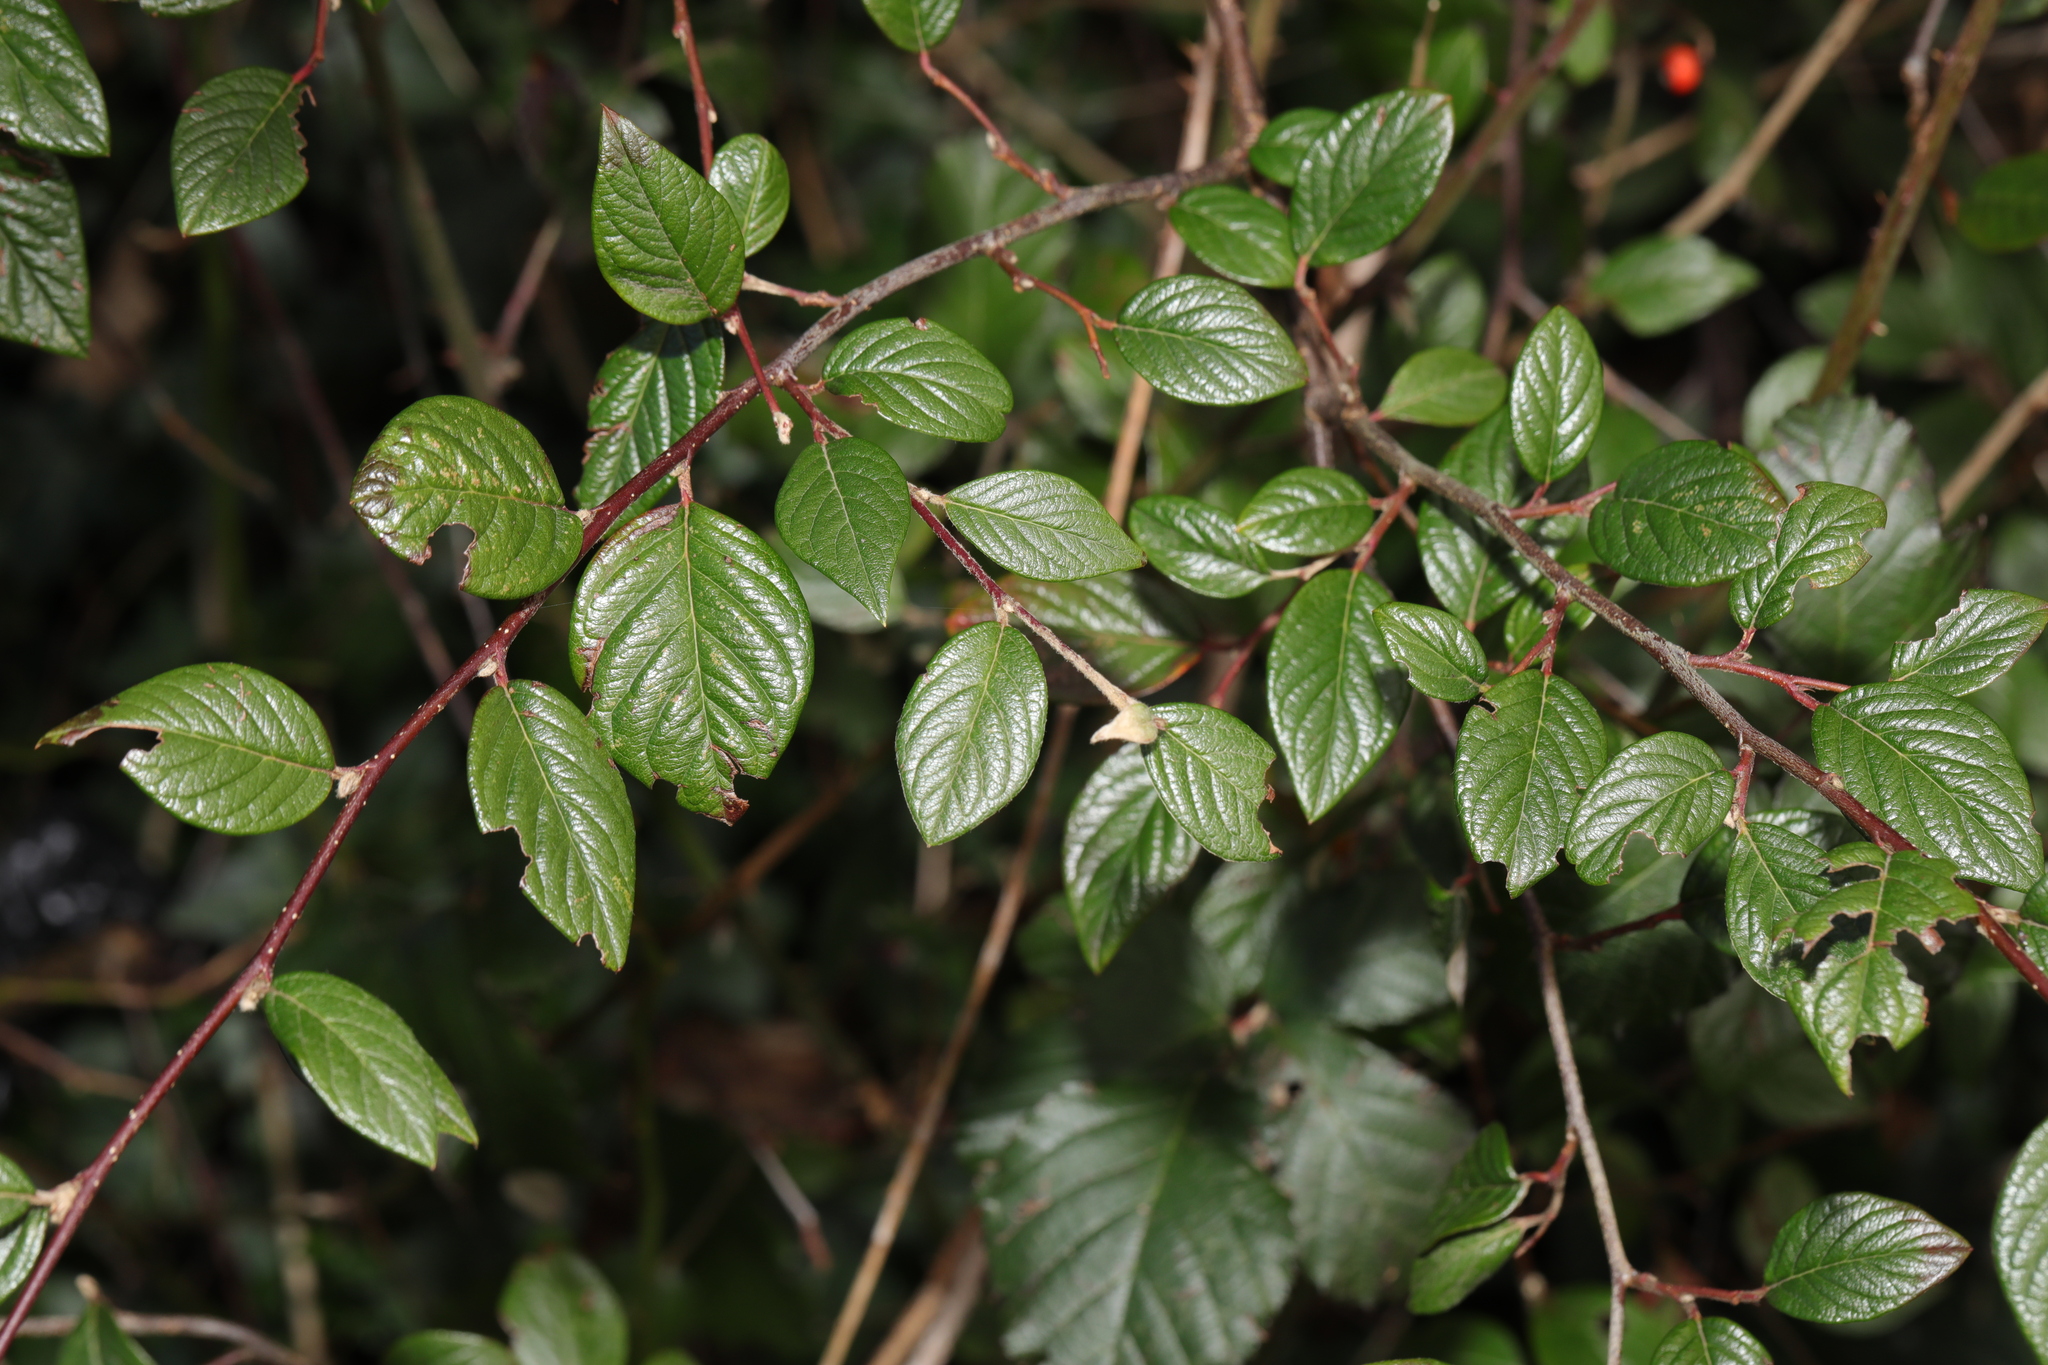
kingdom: Plantae
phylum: Tracheophyta
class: Magnoliopsida
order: Rosales
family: Rosaceae
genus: Cotoneaster
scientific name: Cotoneaster franchetii
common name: Franchet's cotoneaster
